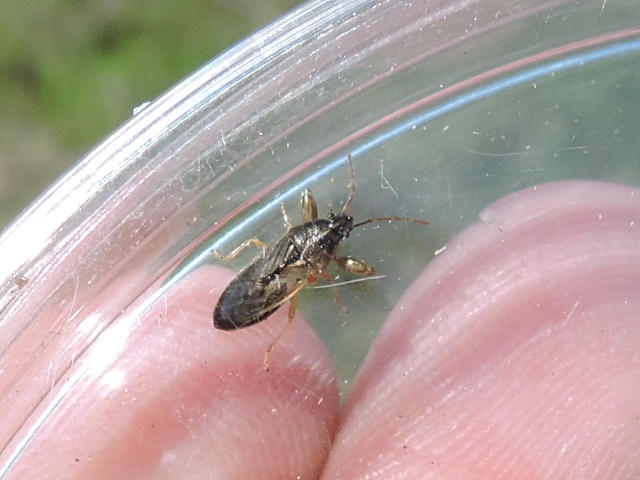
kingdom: Animalia
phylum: Arthropoda
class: Insecta
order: Hemiptera
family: Pachygronthidae
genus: Oedancala
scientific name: Oedancala dorsalis
